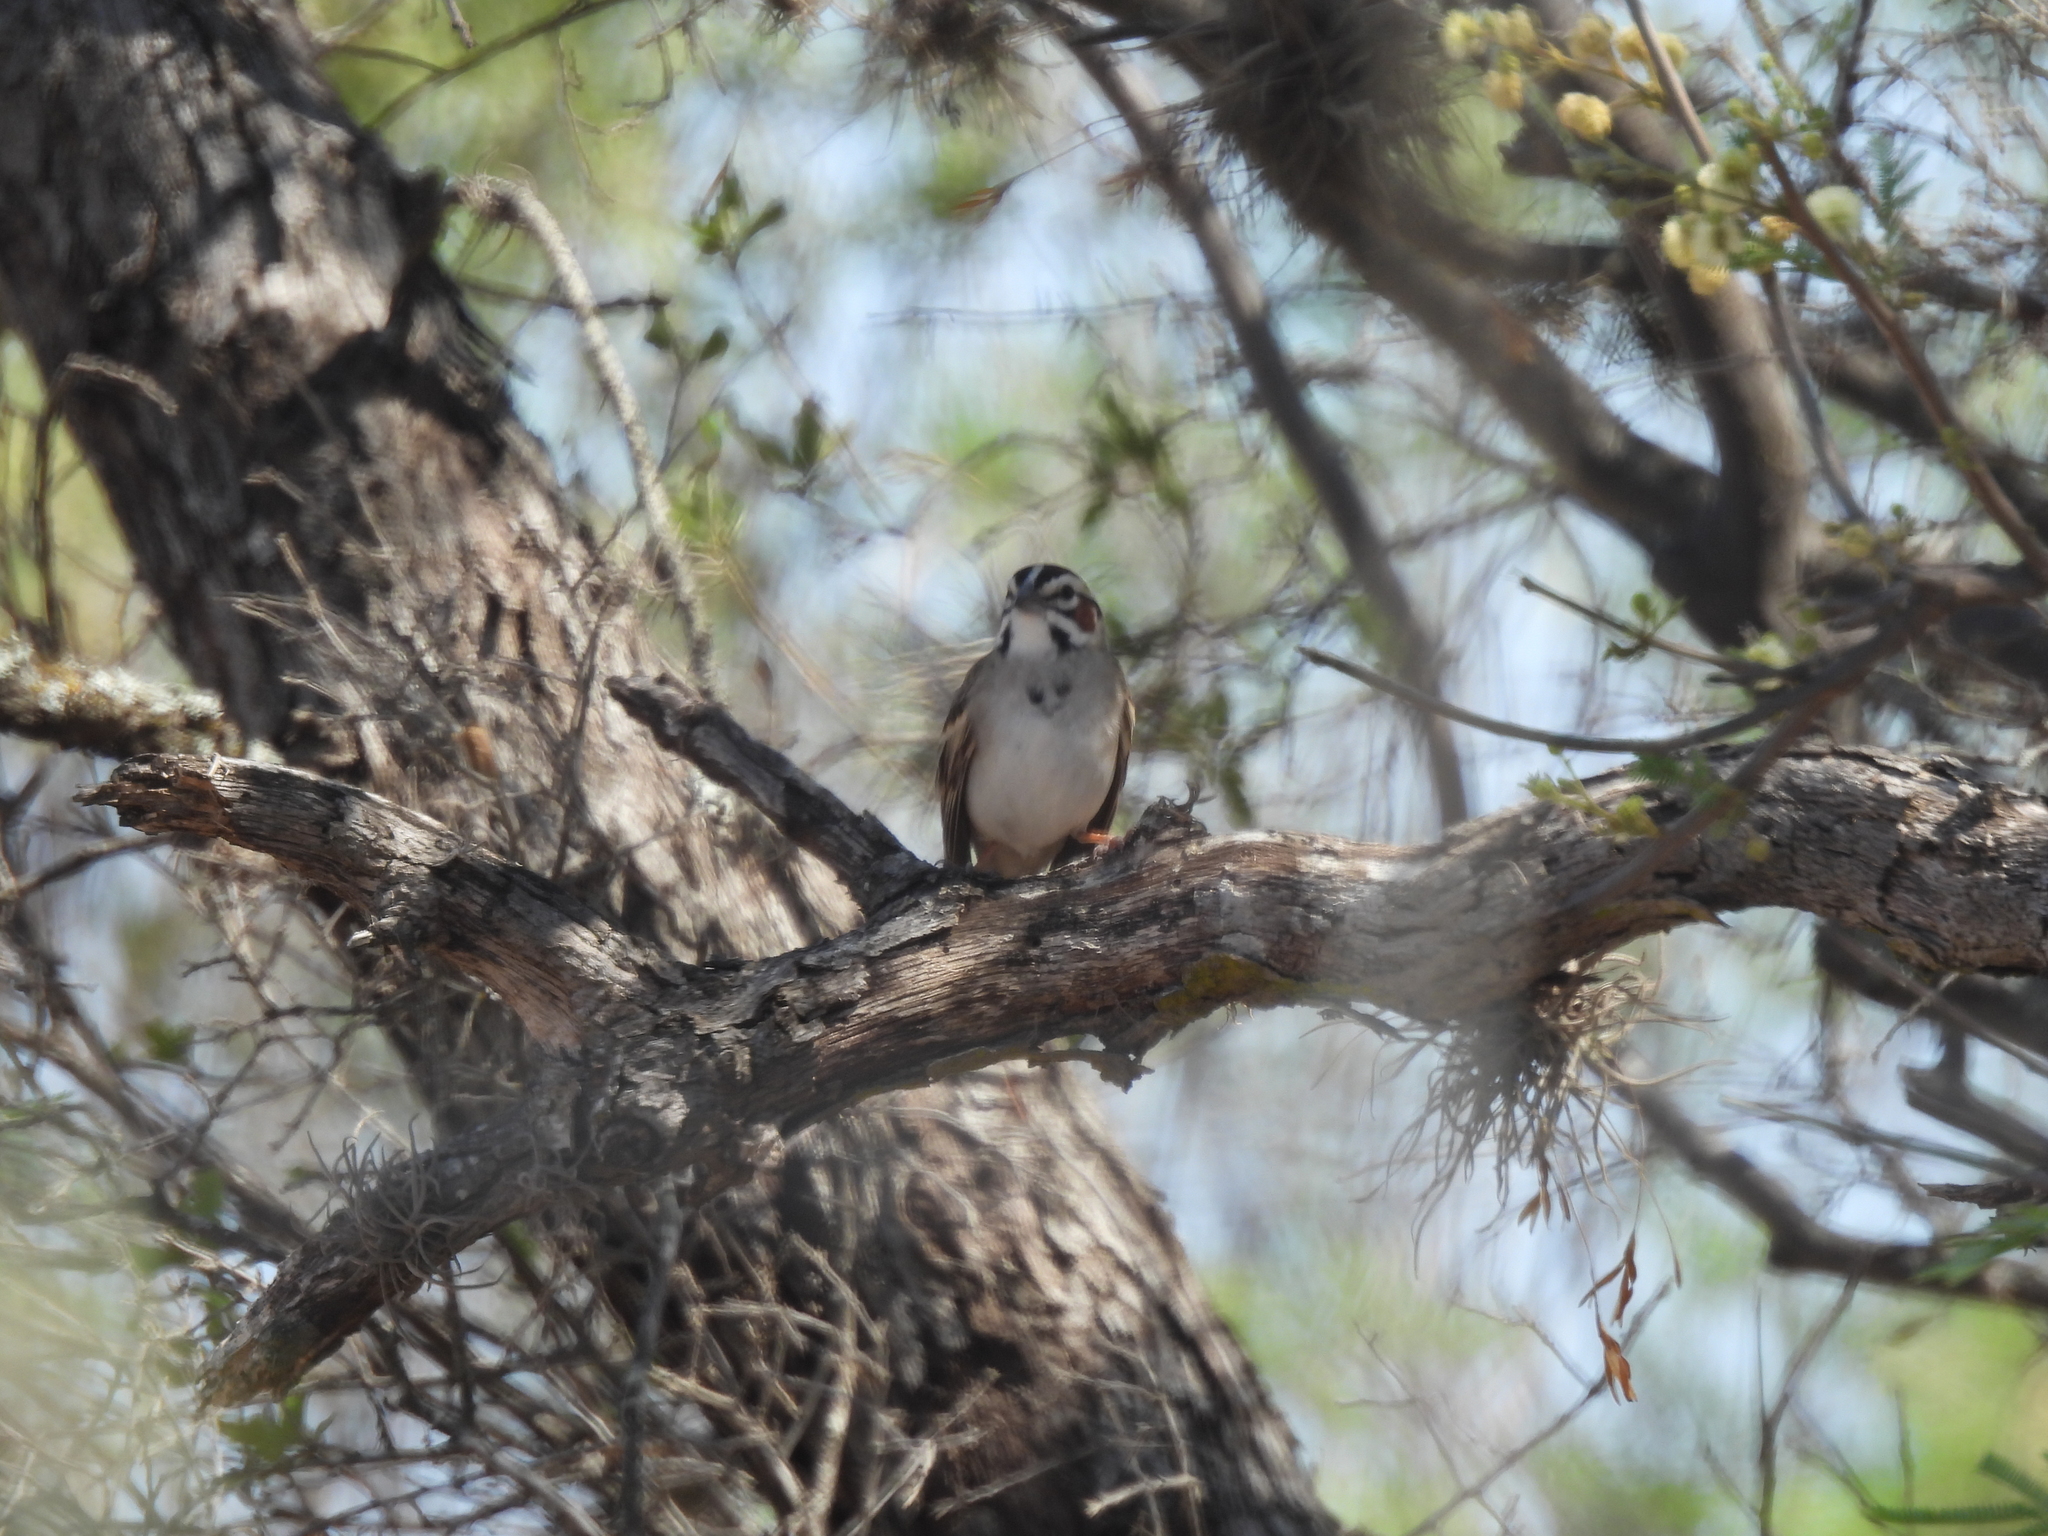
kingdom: Animalia
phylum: Chordata
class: Aves
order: Passeriformes
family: Passerellidae
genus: Chondestes
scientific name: Chondestes grammacus
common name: Lark sparrow
